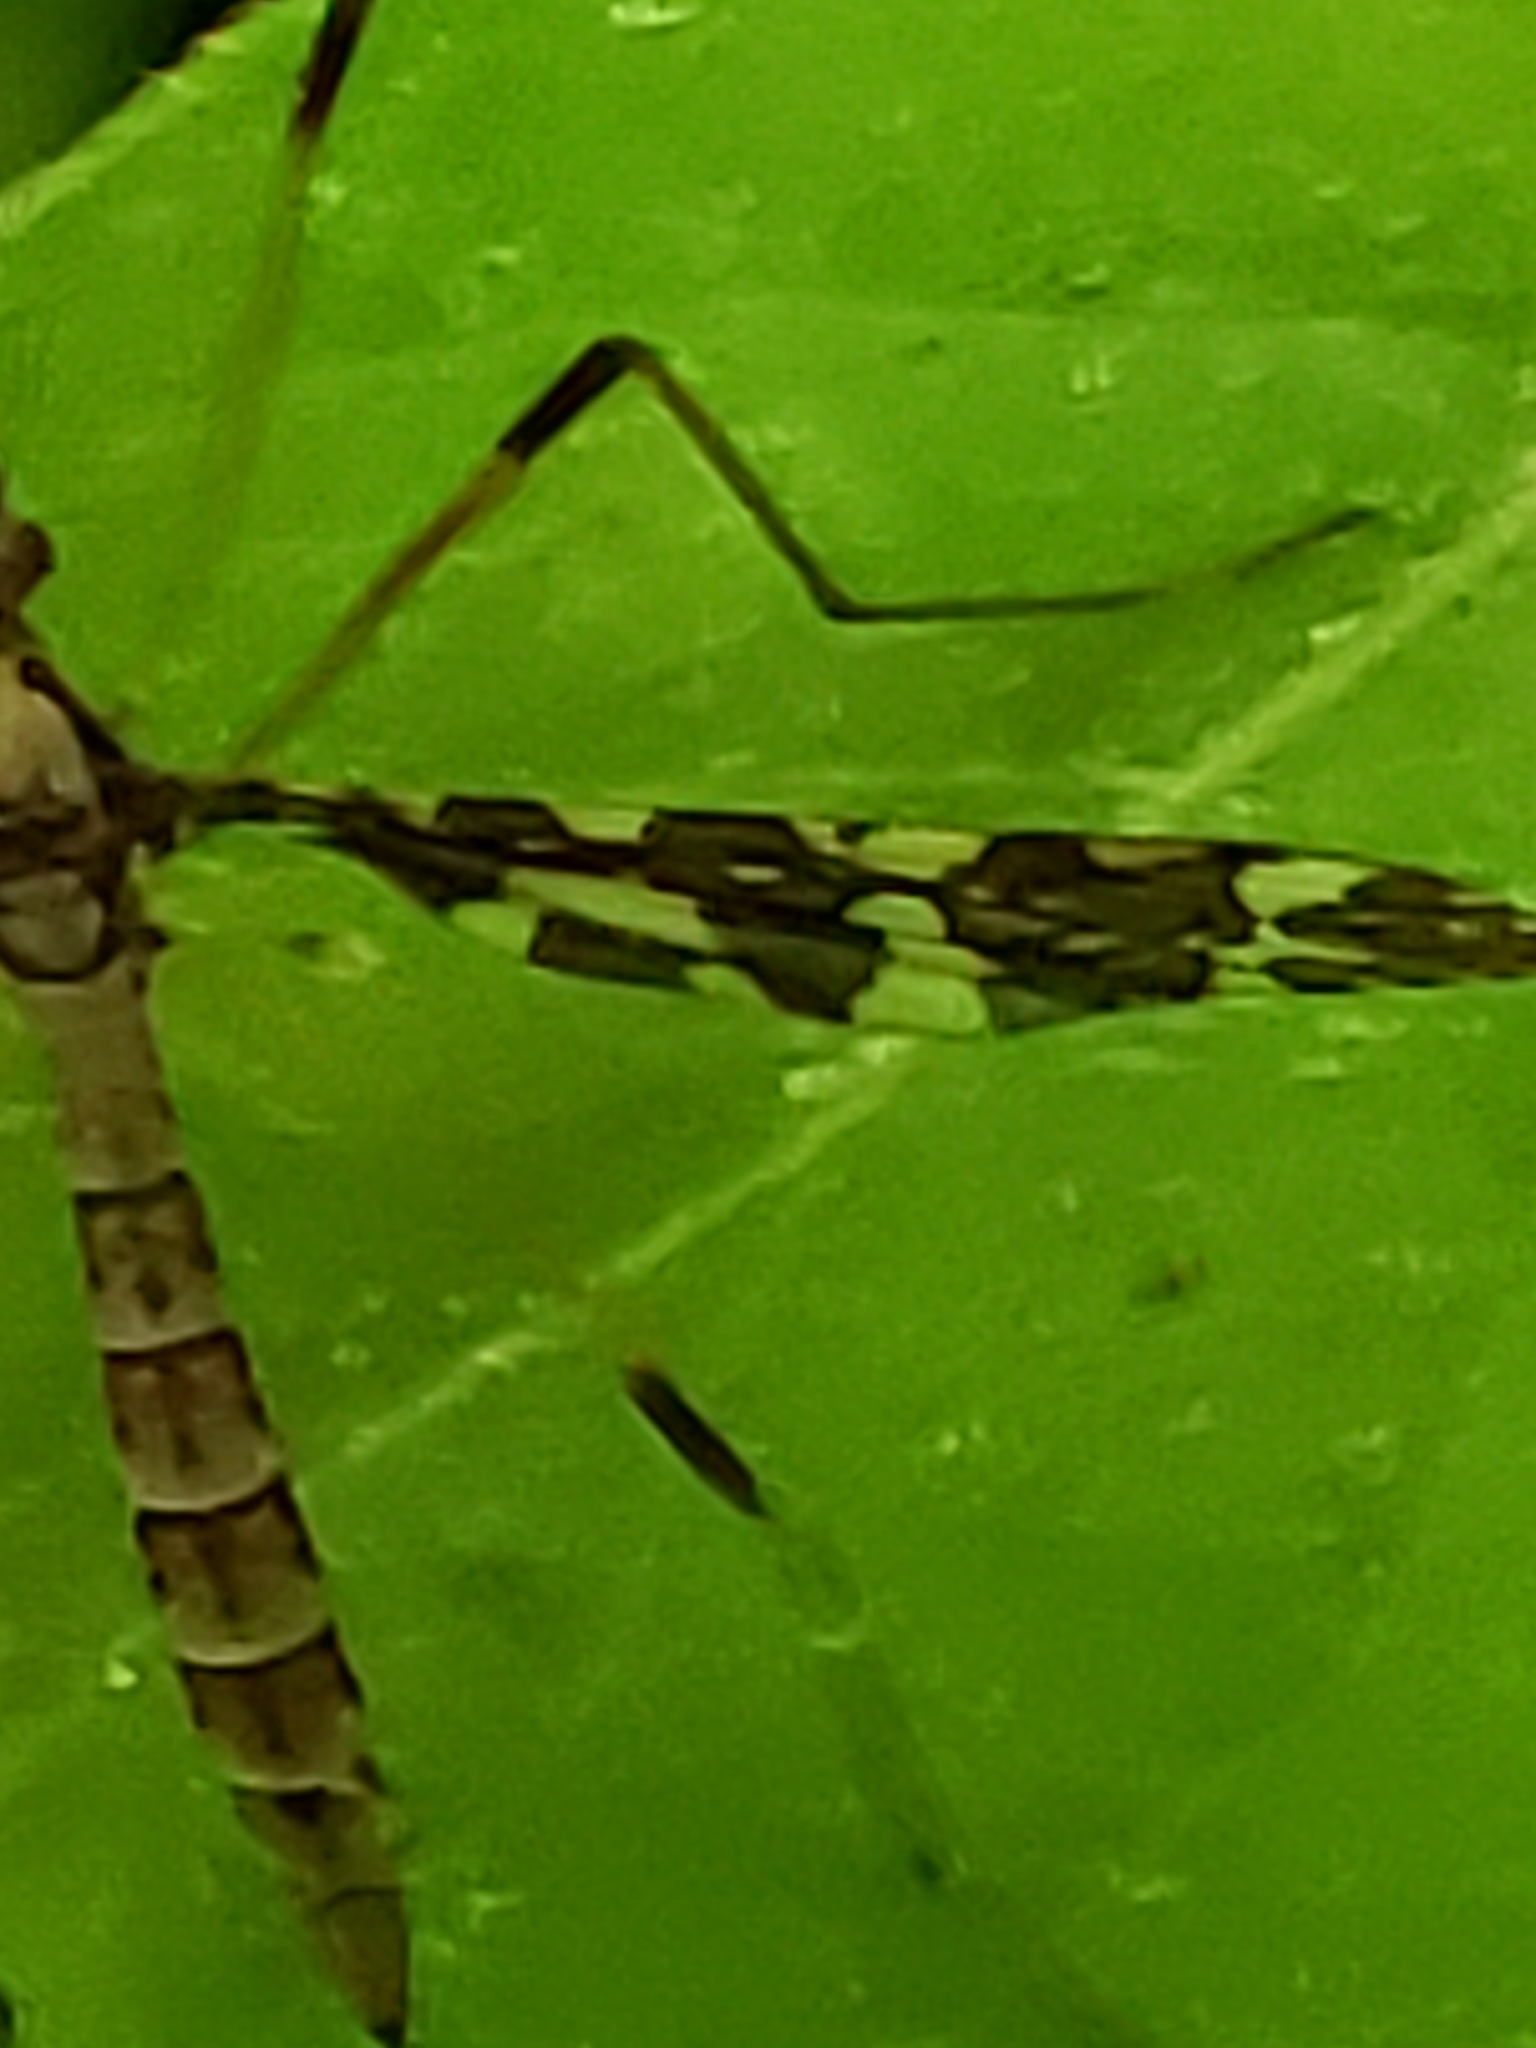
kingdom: Animalia
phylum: Arthropoda
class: Insecta
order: Diptera
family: Limoniidae
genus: Epiphragma
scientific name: Epiphragma fasciapenne
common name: Band-winged crane fly
